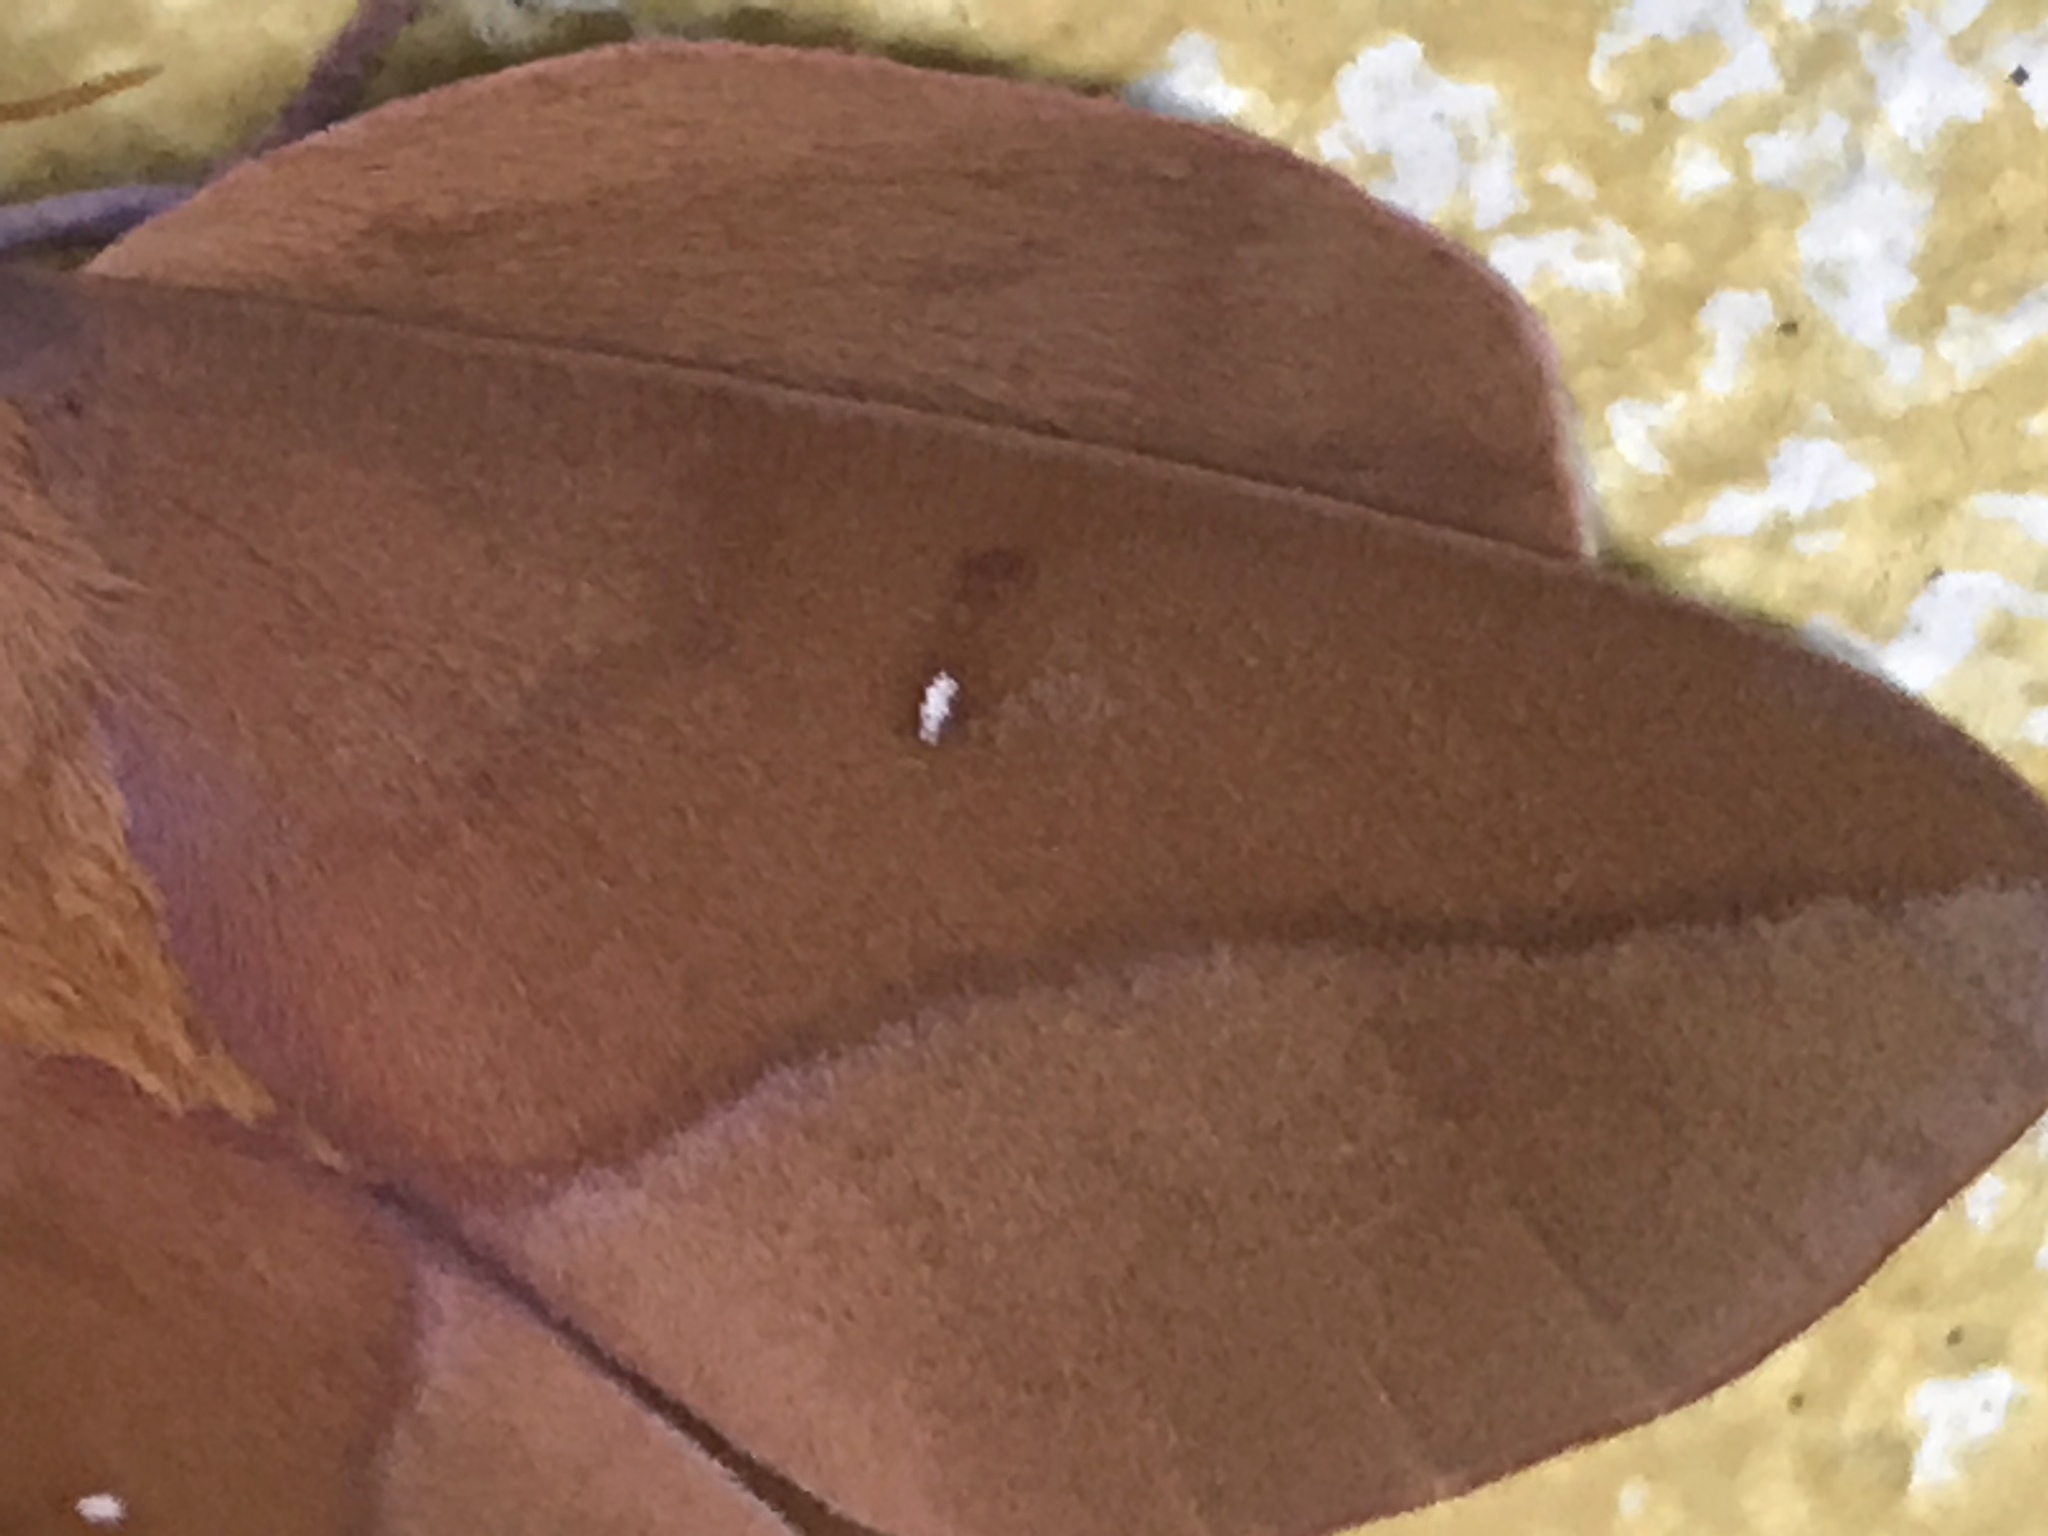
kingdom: Animalia
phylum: Arthropoda
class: Insecta
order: Lepidoptera
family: Saturniidae
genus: Othorene
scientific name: Othorene verana
